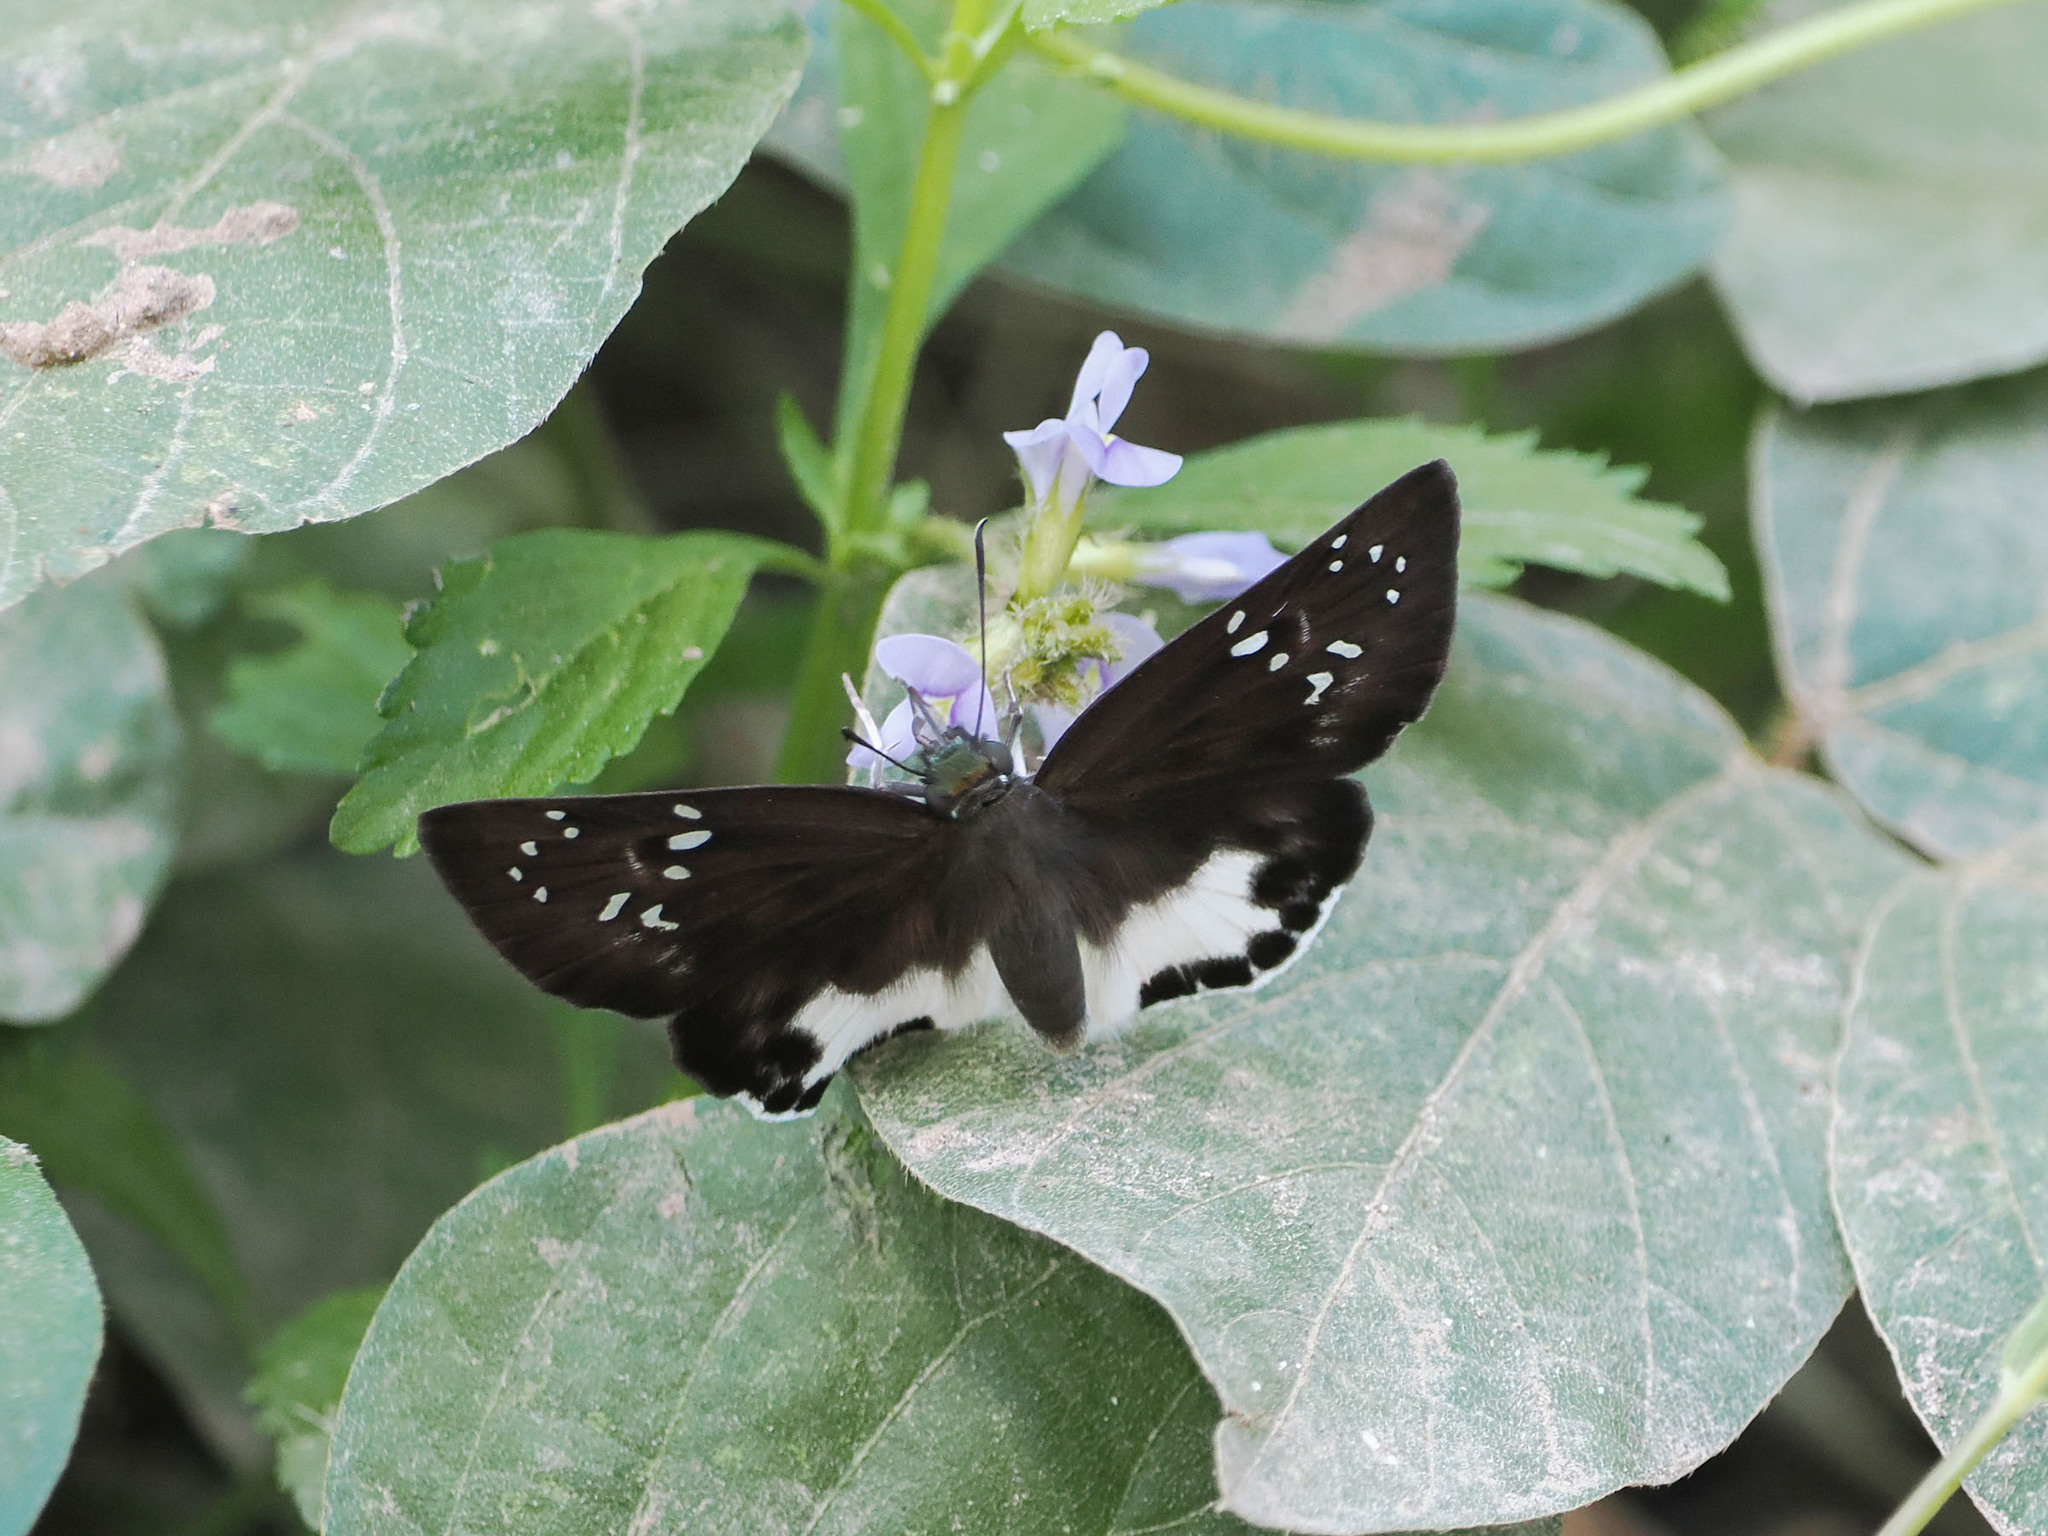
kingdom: Animalia
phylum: Arthropoda
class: Insecta
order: Lepidoptera
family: Hesperiidae
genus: Tagiades
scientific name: Tagiades trebellius
